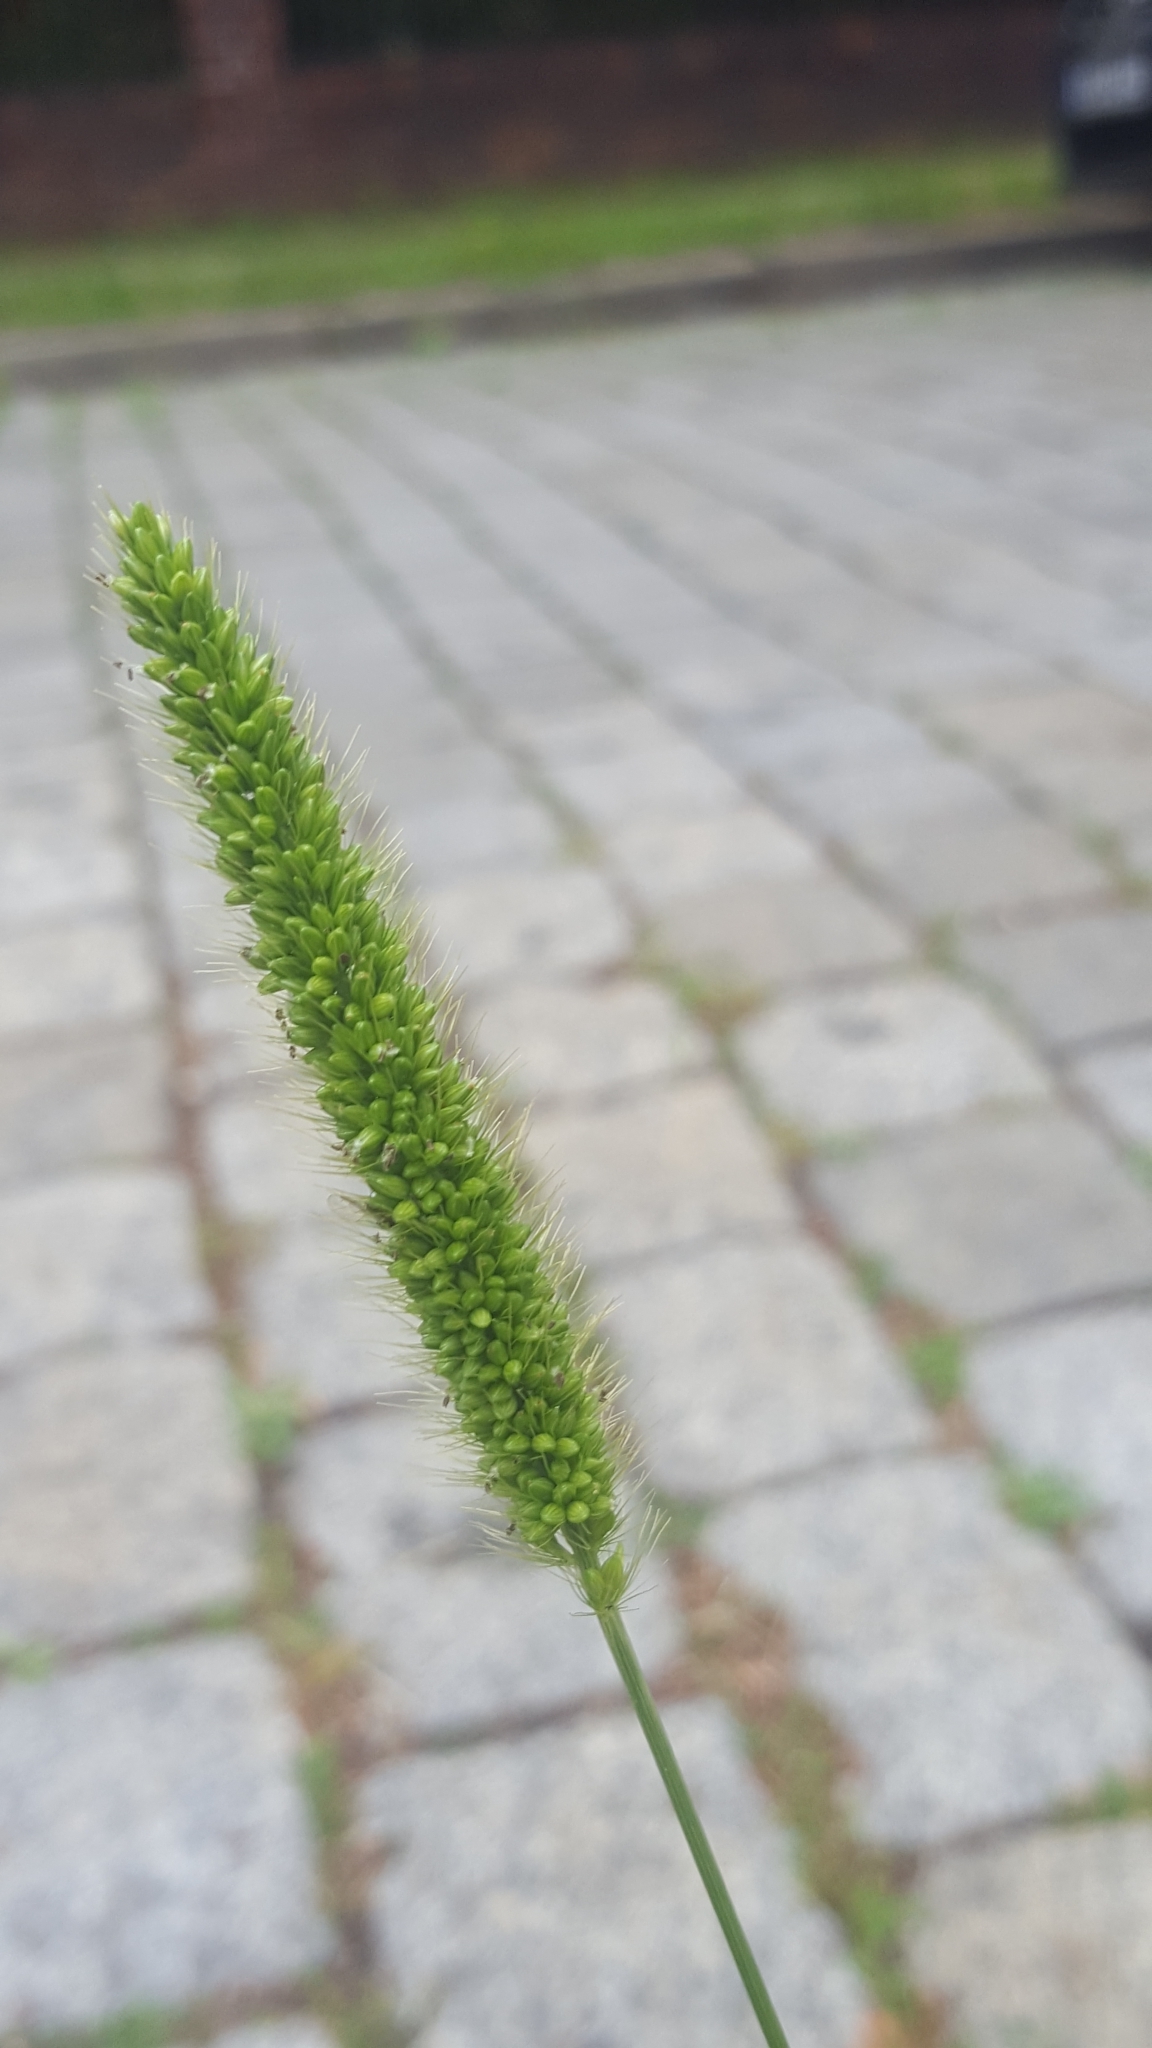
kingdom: Plantae
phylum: Tracheophyta
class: Liliopsida
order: Poales
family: Poaceae
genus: Setaria
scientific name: Setaria viridis
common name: Green bristlegrass
